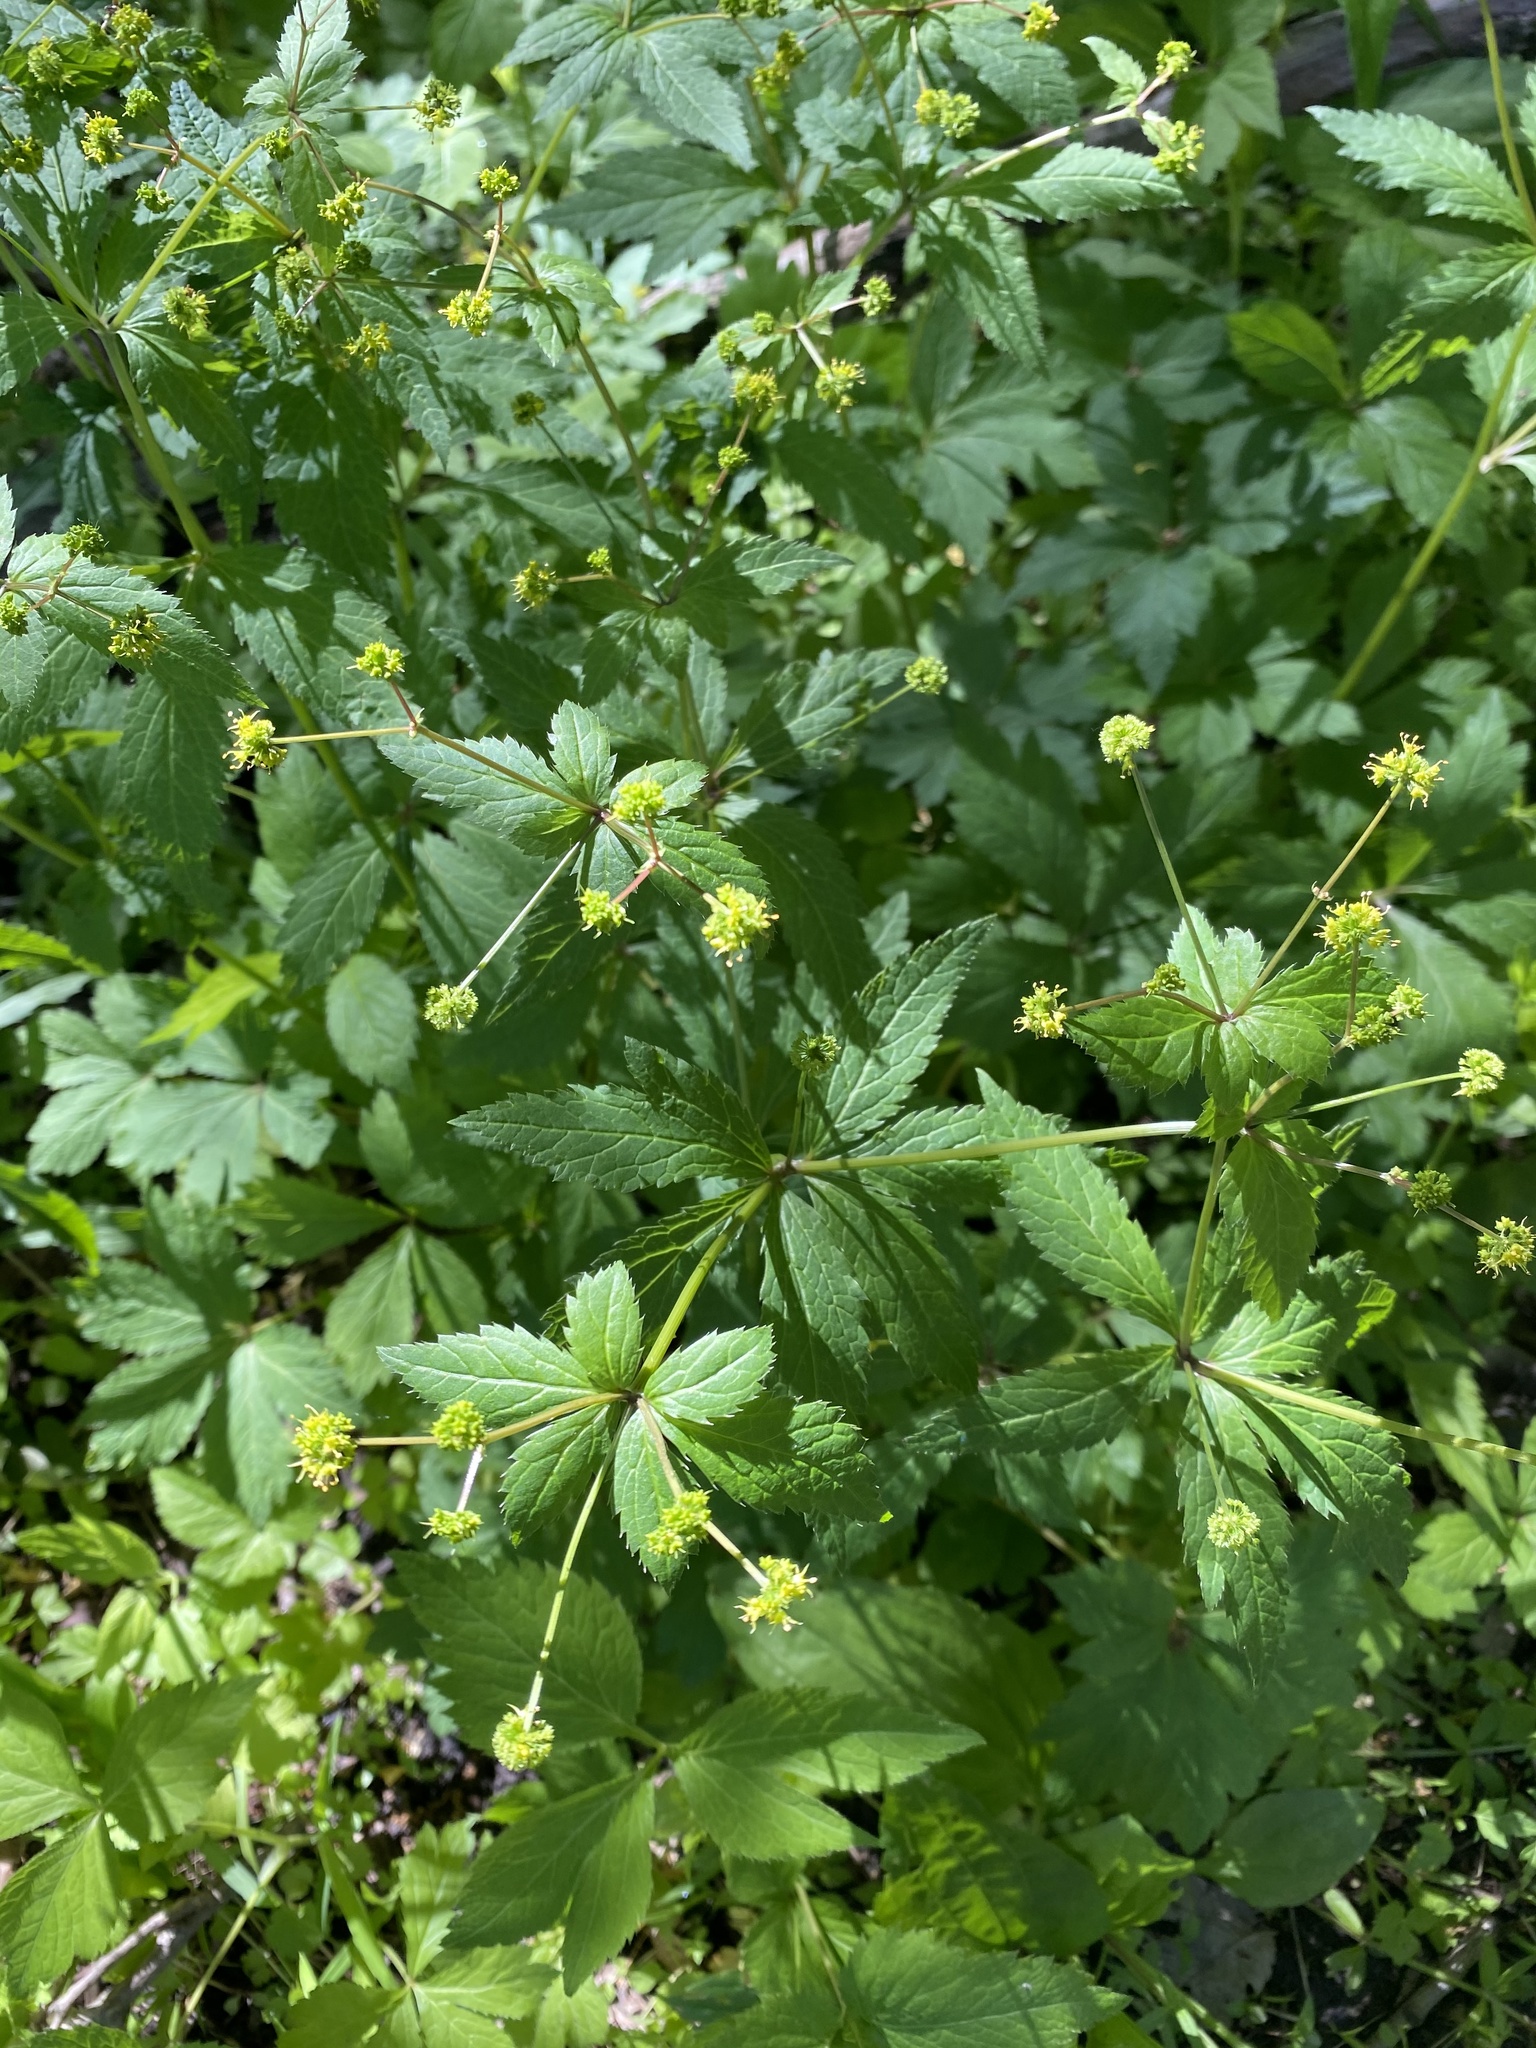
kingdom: Plantae
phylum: Tracheophyta
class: Magnoliopsida
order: Apiales
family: Apiaceae
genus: Sanicula
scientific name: Sanicula odorata
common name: Cluster sanicle
